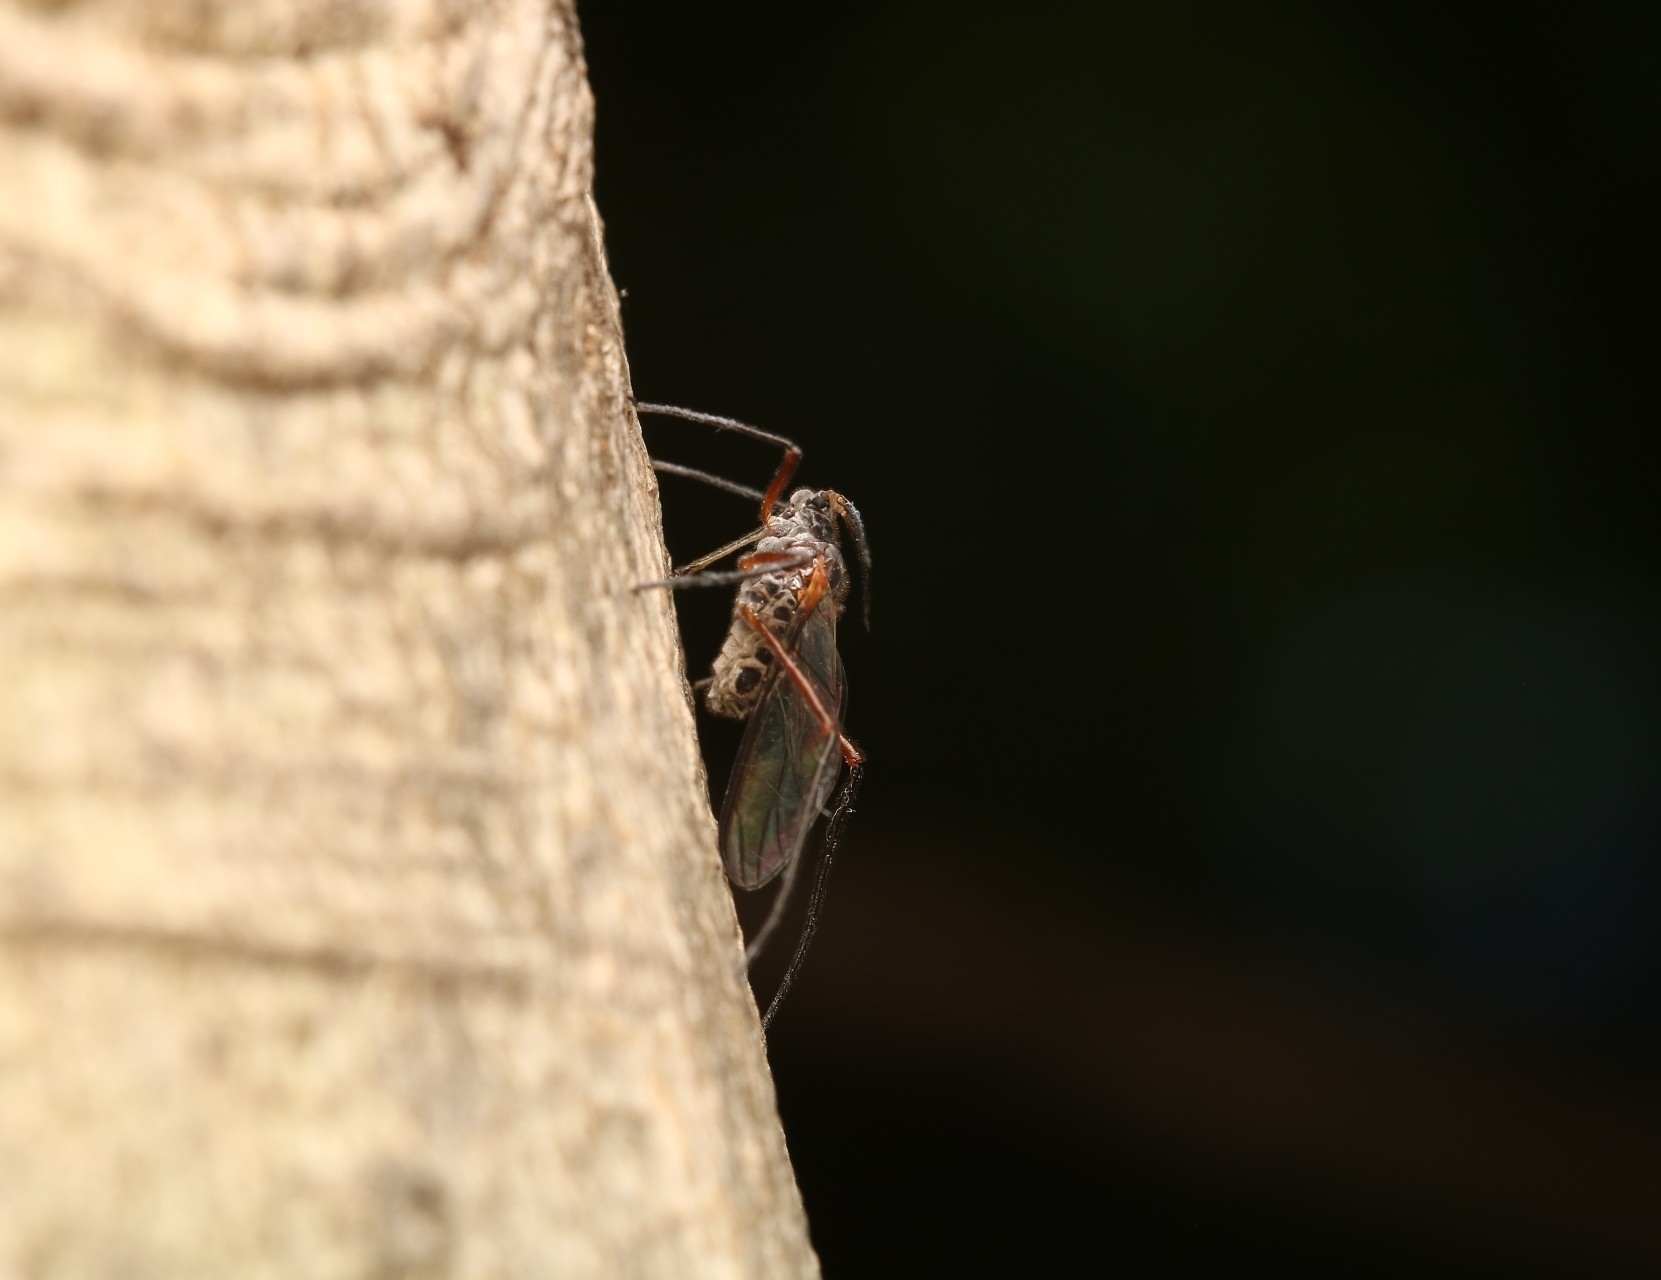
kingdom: Animalia
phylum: Arthropoda
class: Insecta
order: Hemiptera
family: Aphididae
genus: Longistigma
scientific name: Longistigma caryae
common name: Giant bark aphid
